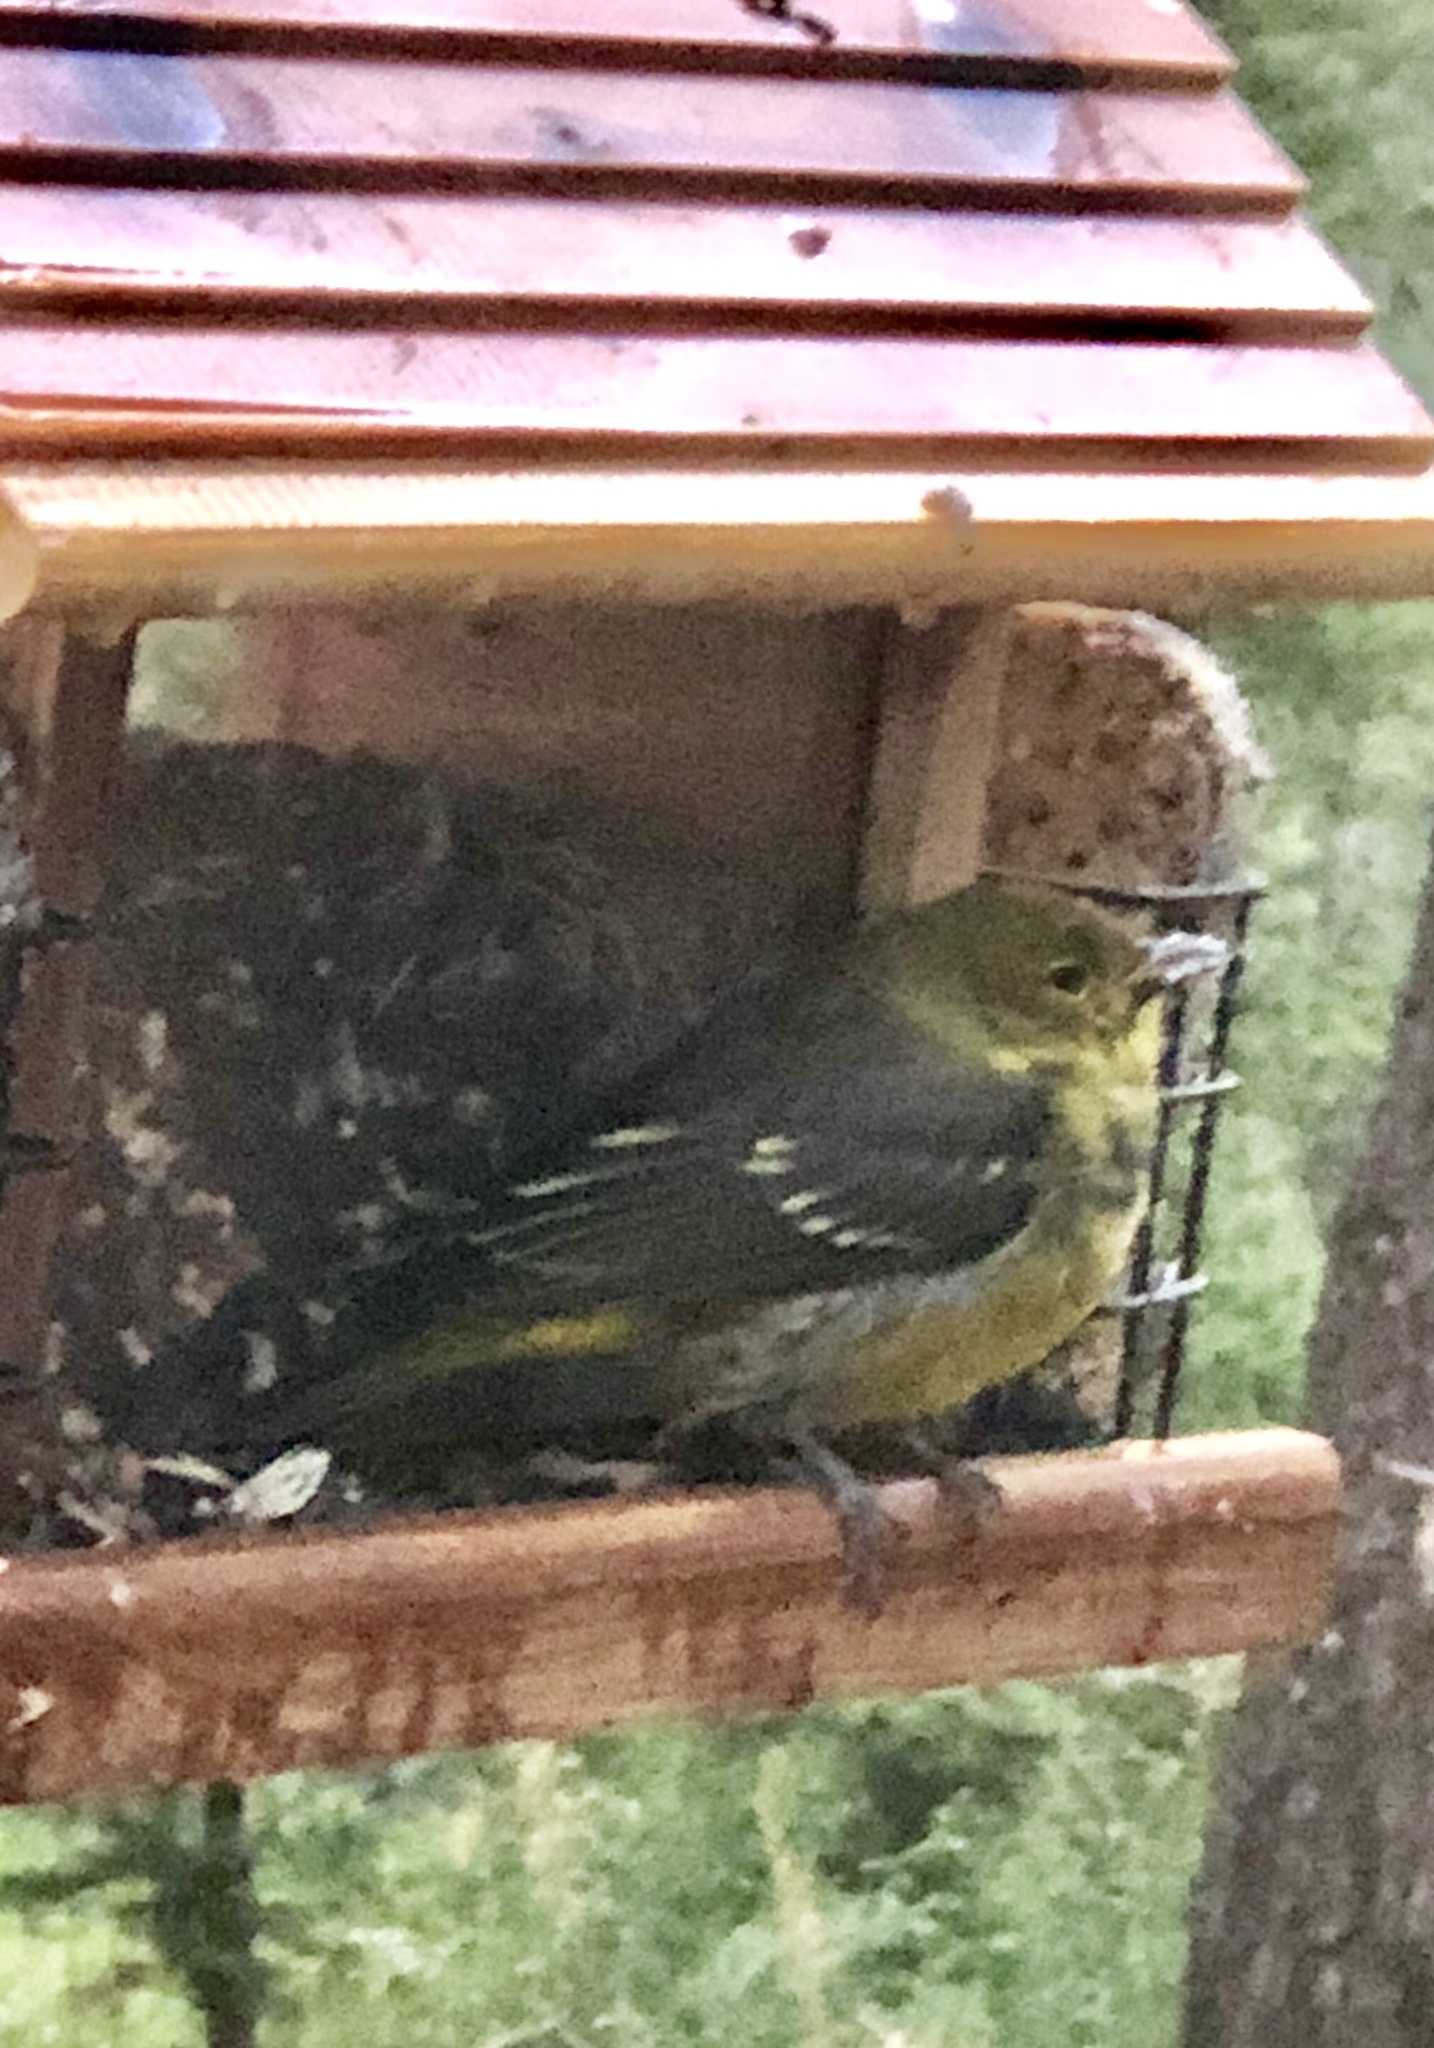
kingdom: Animalia
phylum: Chordata
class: Aves
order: Passeriformes
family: Cardinalidae
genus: Piranga
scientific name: Piranga ludoviciana
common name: Western tanager
